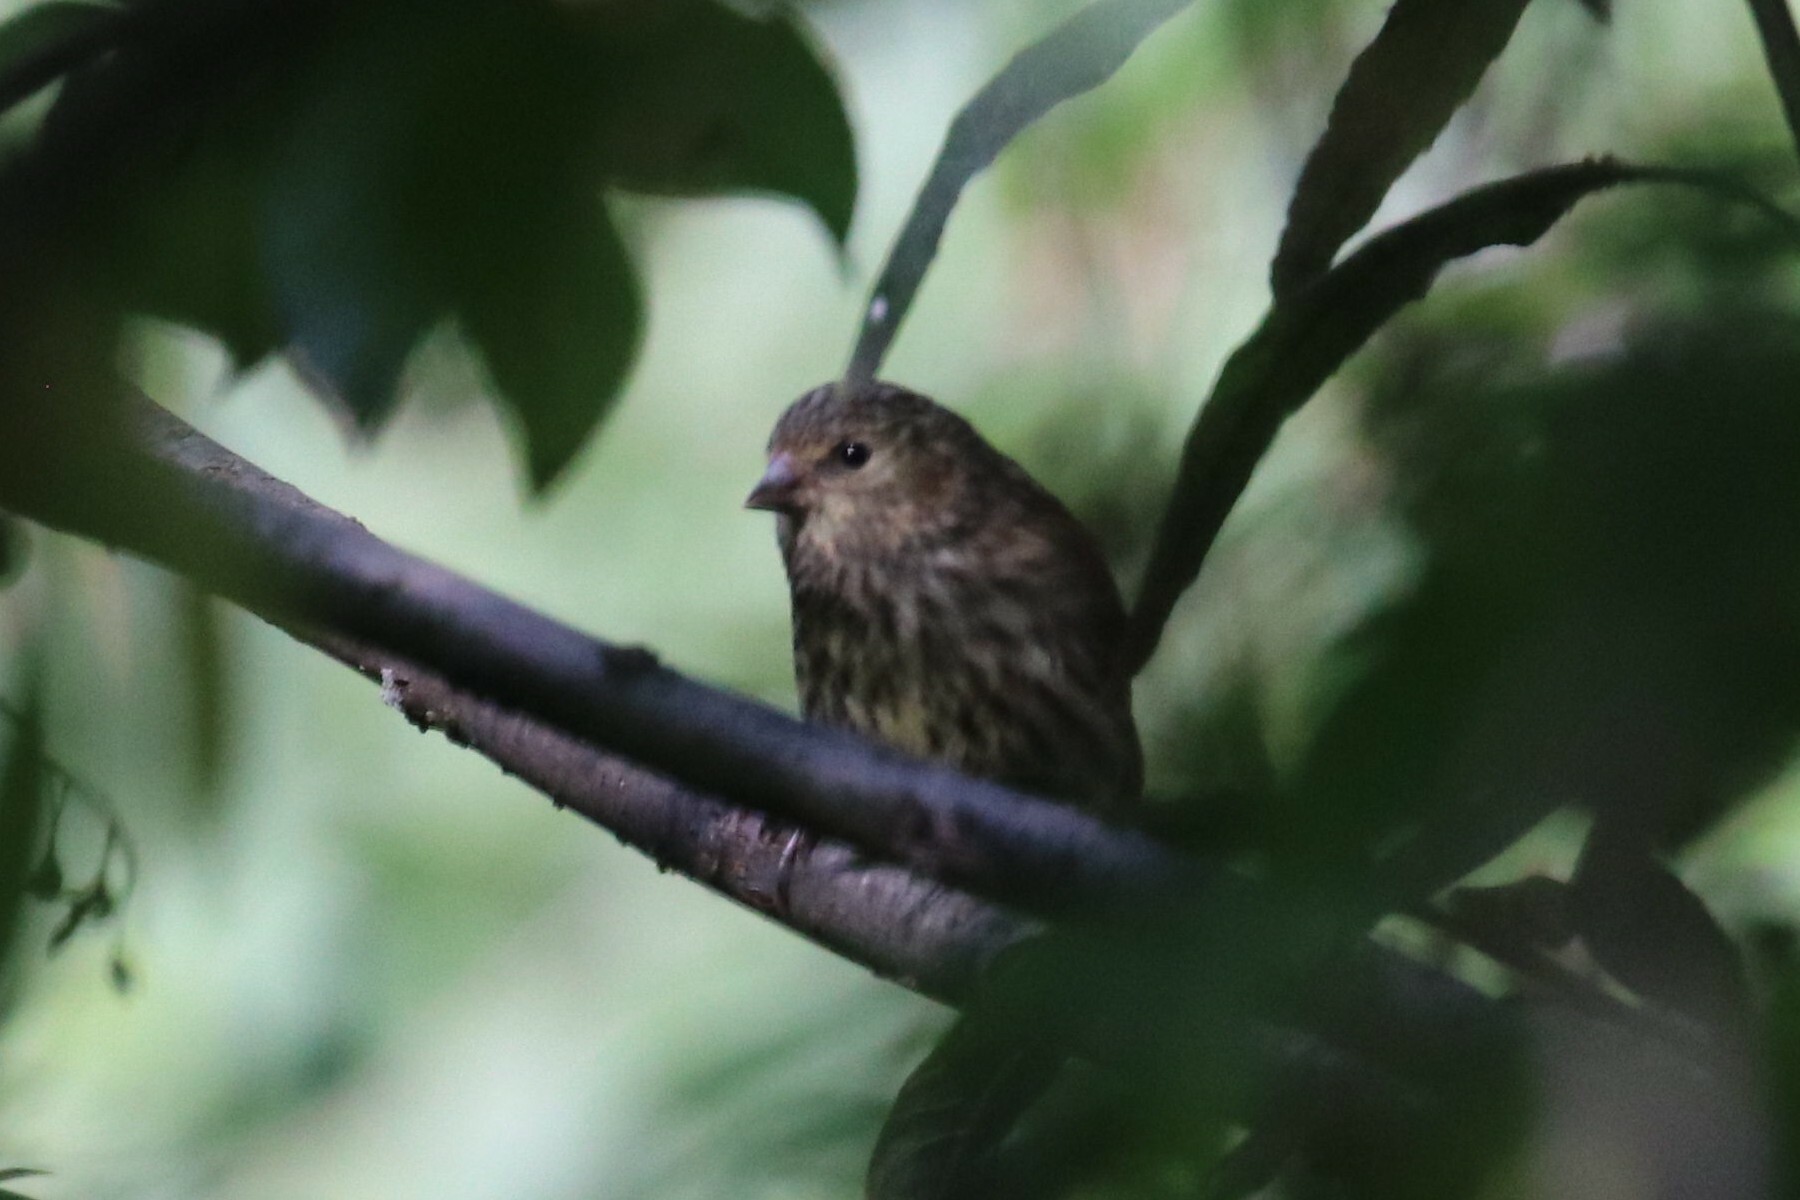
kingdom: Animalia
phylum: Chordata
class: Aves
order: Passeriformes
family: Fringillidae
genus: Spinus
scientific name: Spinus spinus
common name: Eurasian siskin
